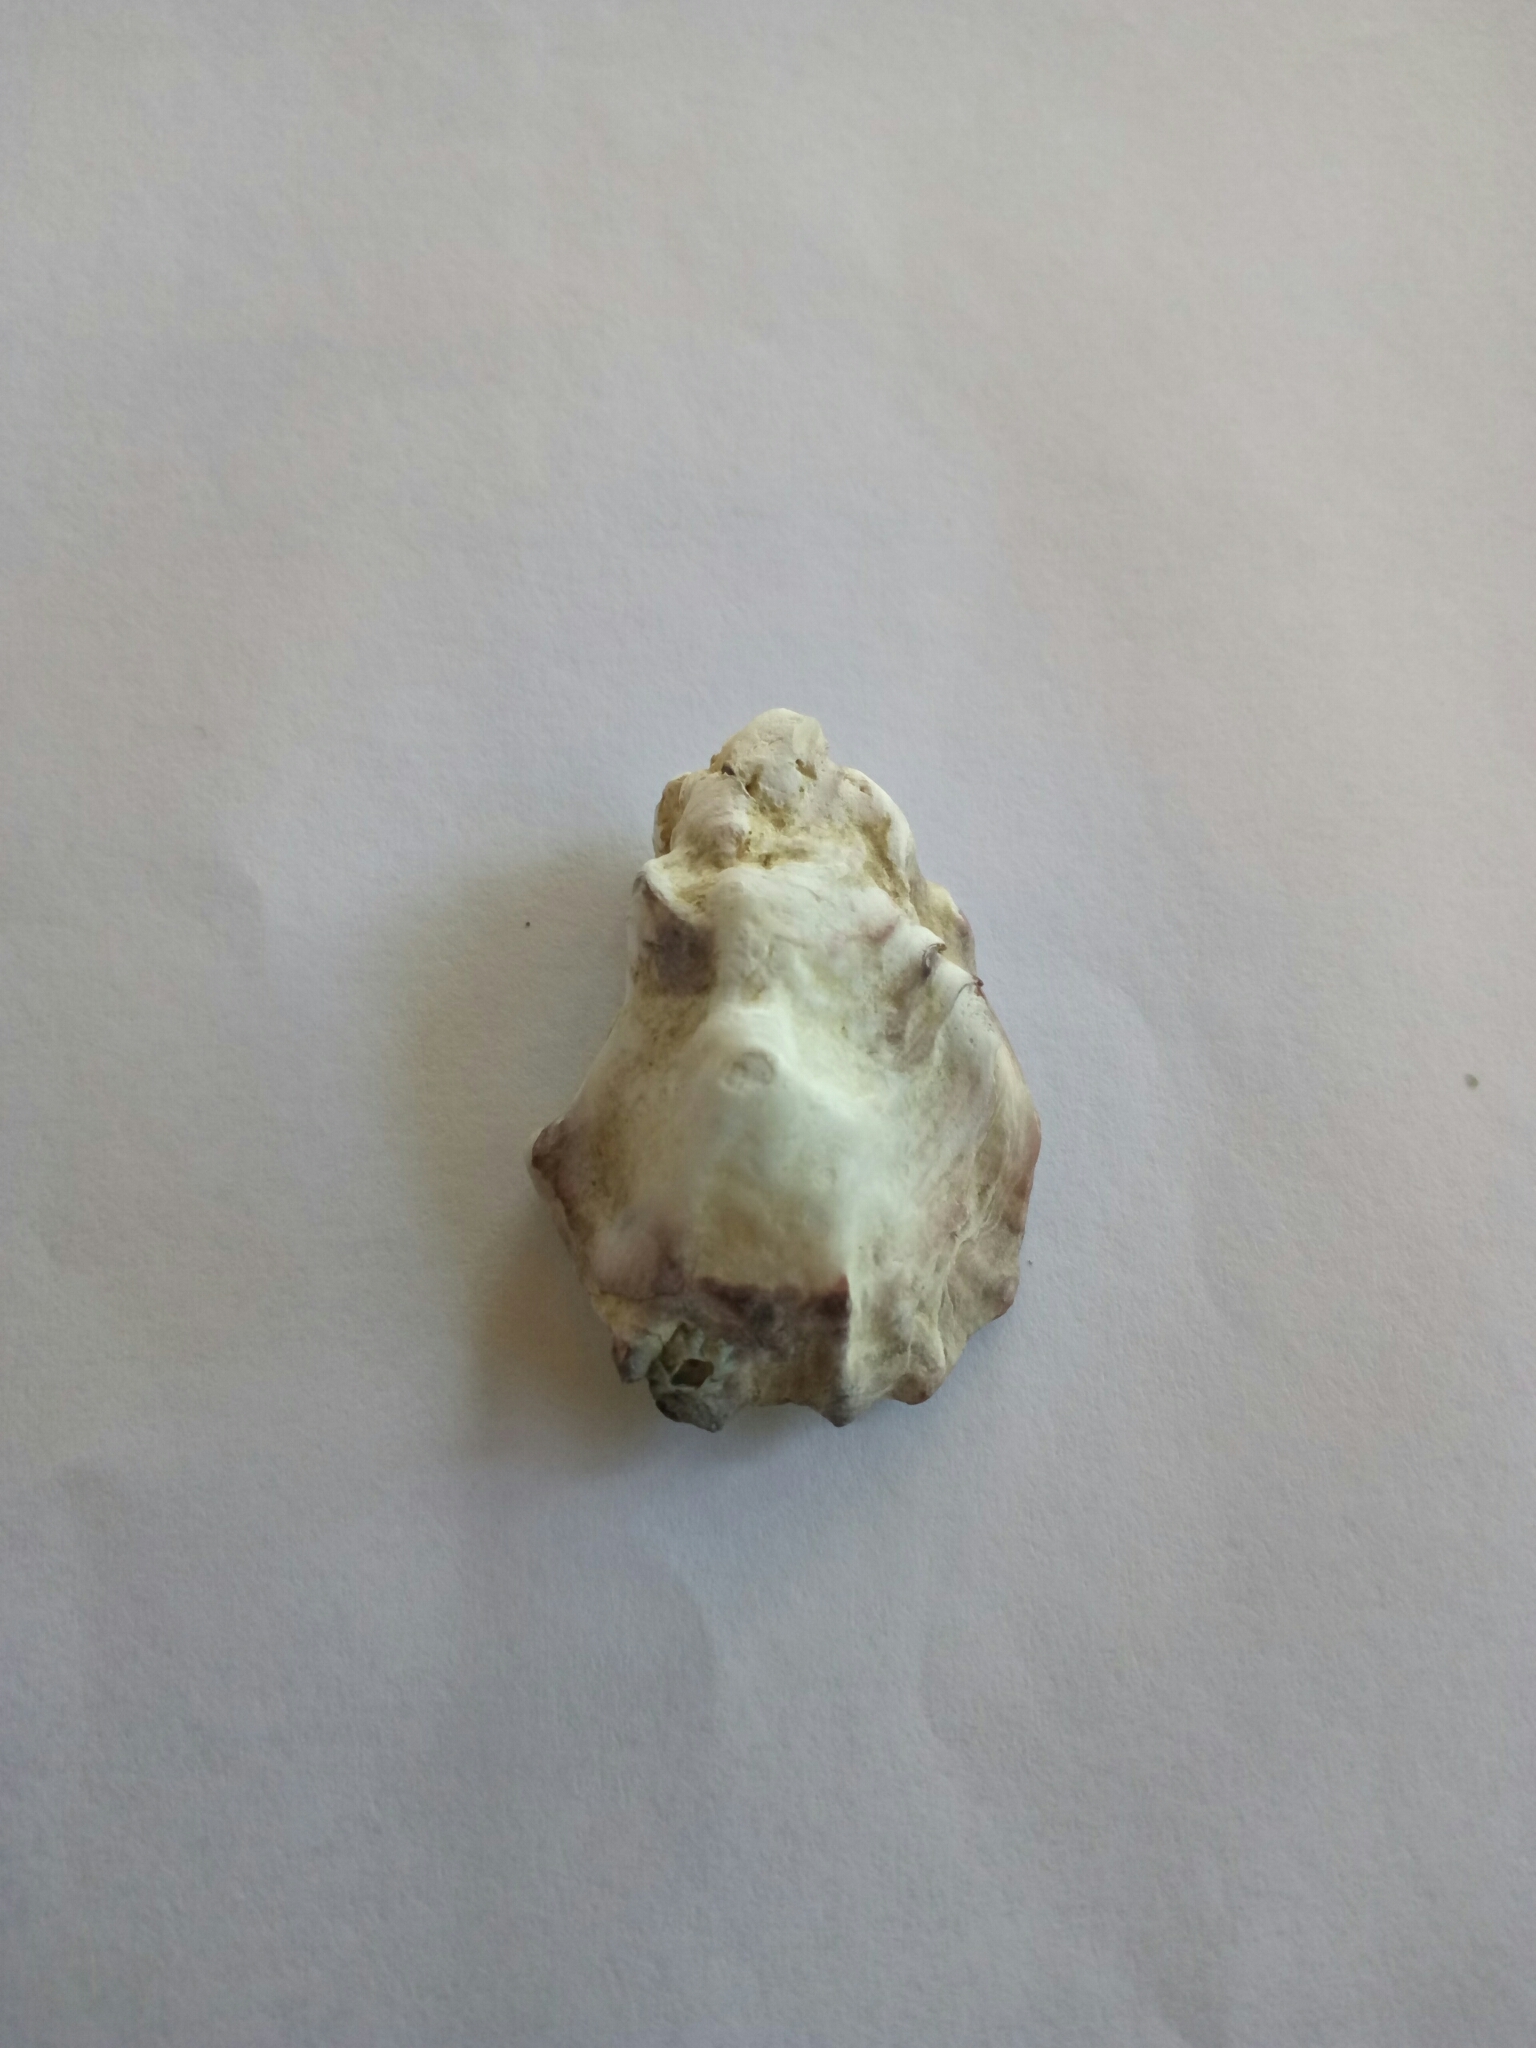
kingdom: Animalia
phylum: Mollusca
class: Bivalvia
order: Ostreida
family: Ostreidae
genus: Magallana
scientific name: Magallana gigas
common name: Pacific oyster
